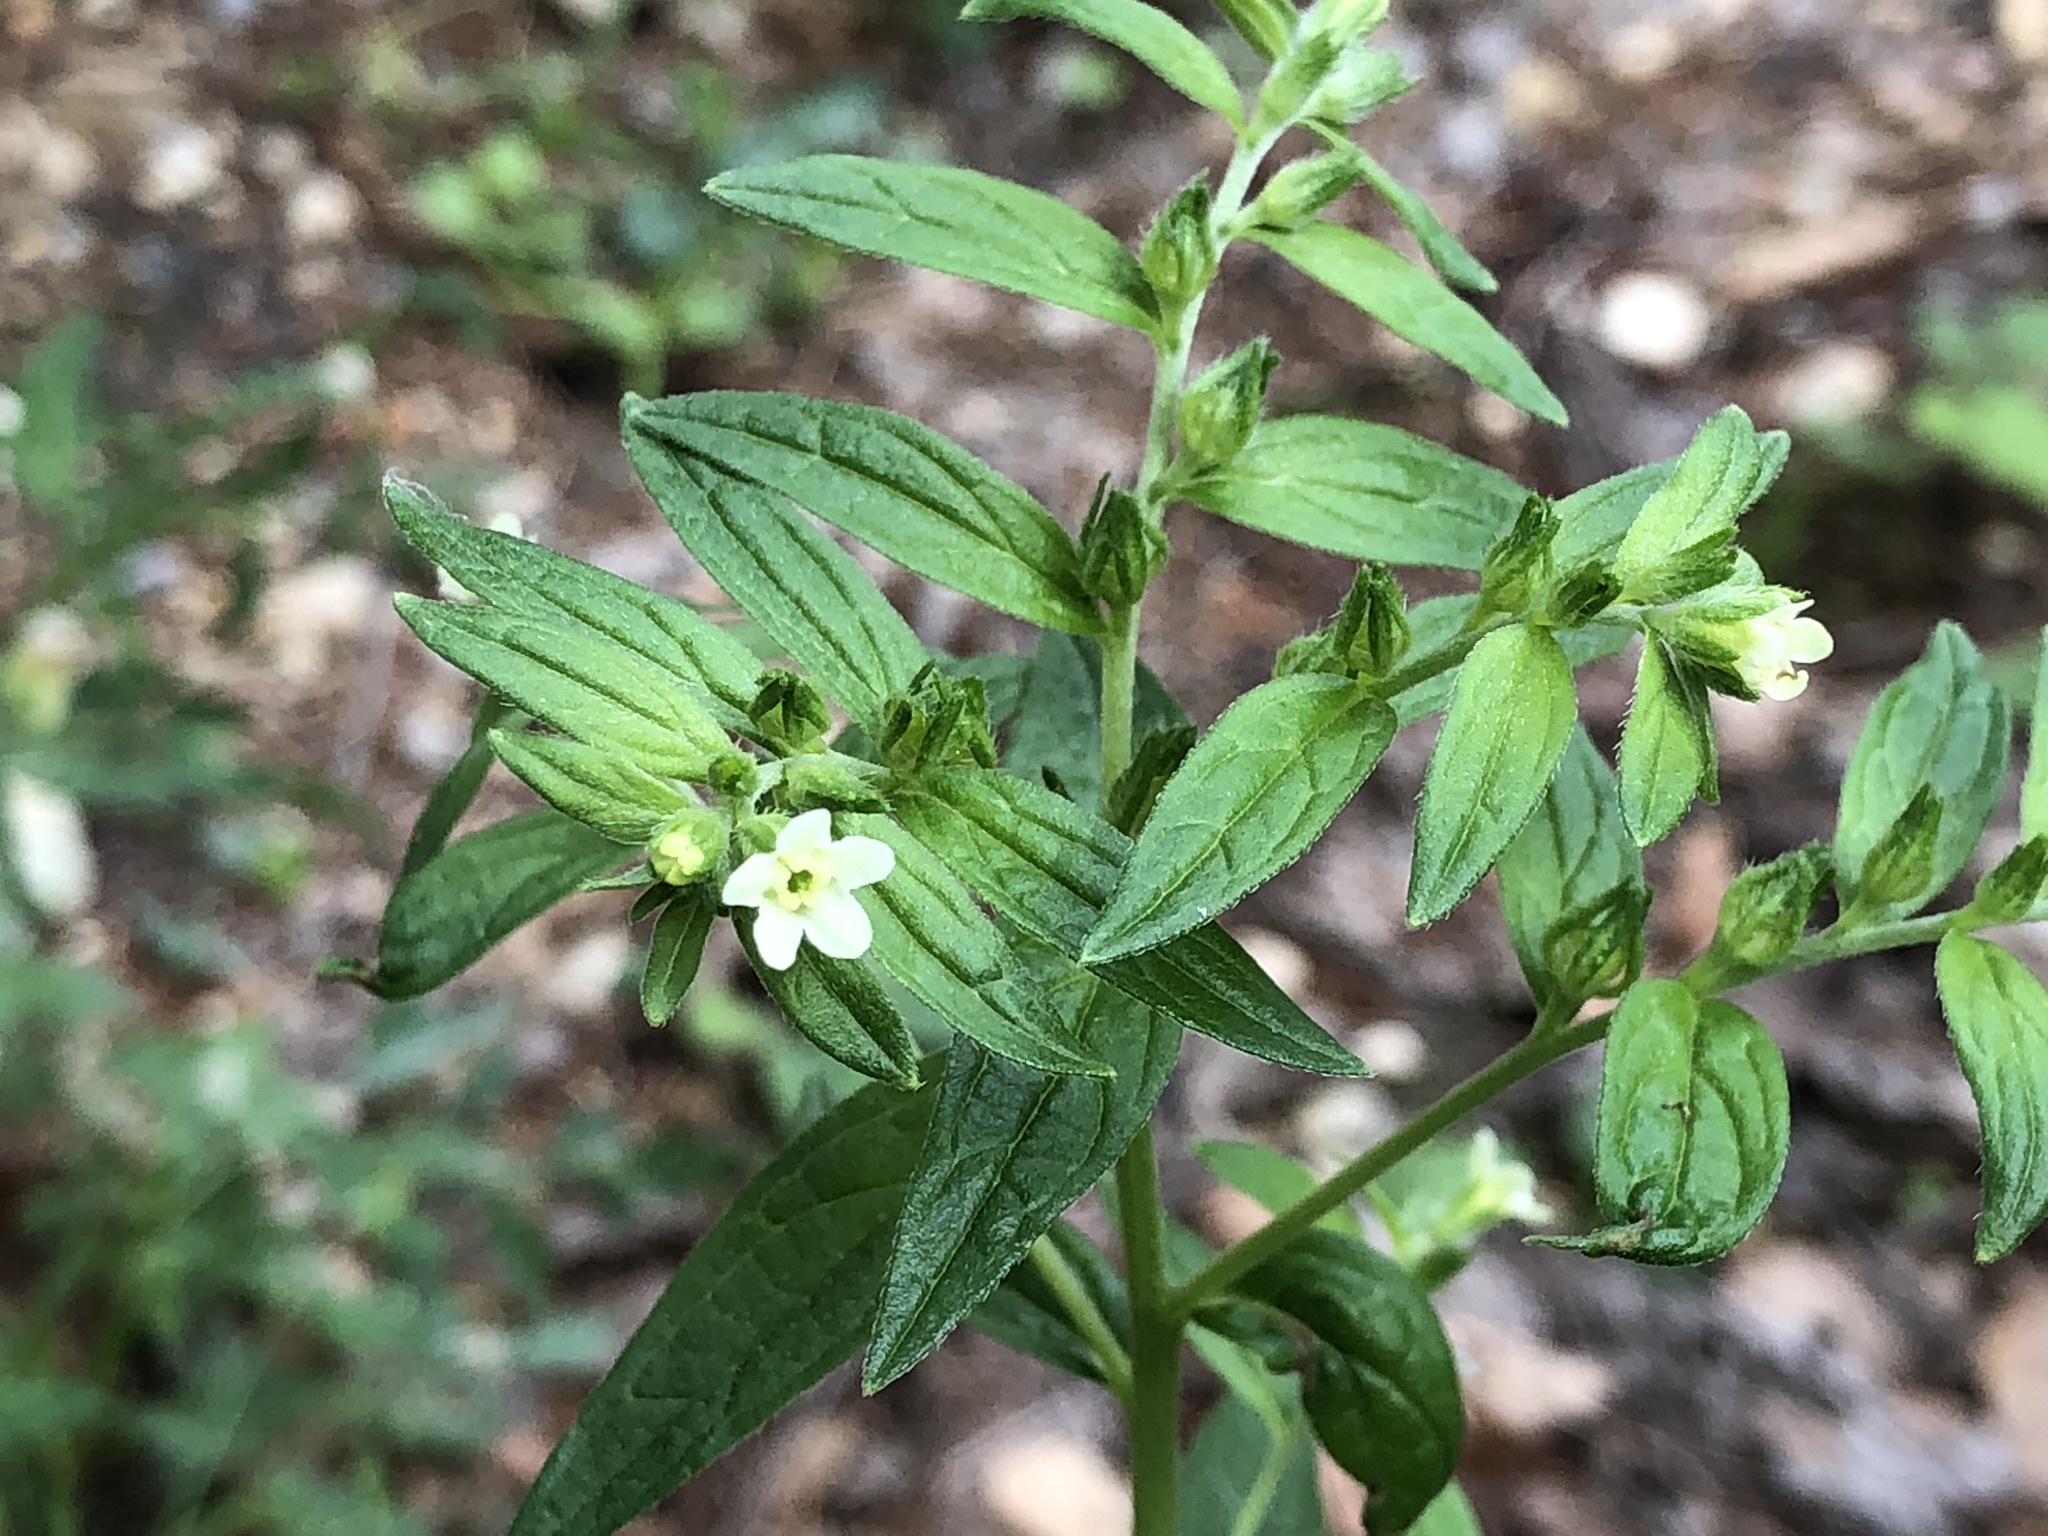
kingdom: Plantae
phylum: Tracheophyta
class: Magnoliopsida
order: Boraginales
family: Boraginaceae
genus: Lithospermum
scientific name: Lithospermum officinale
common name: Common gromwell
